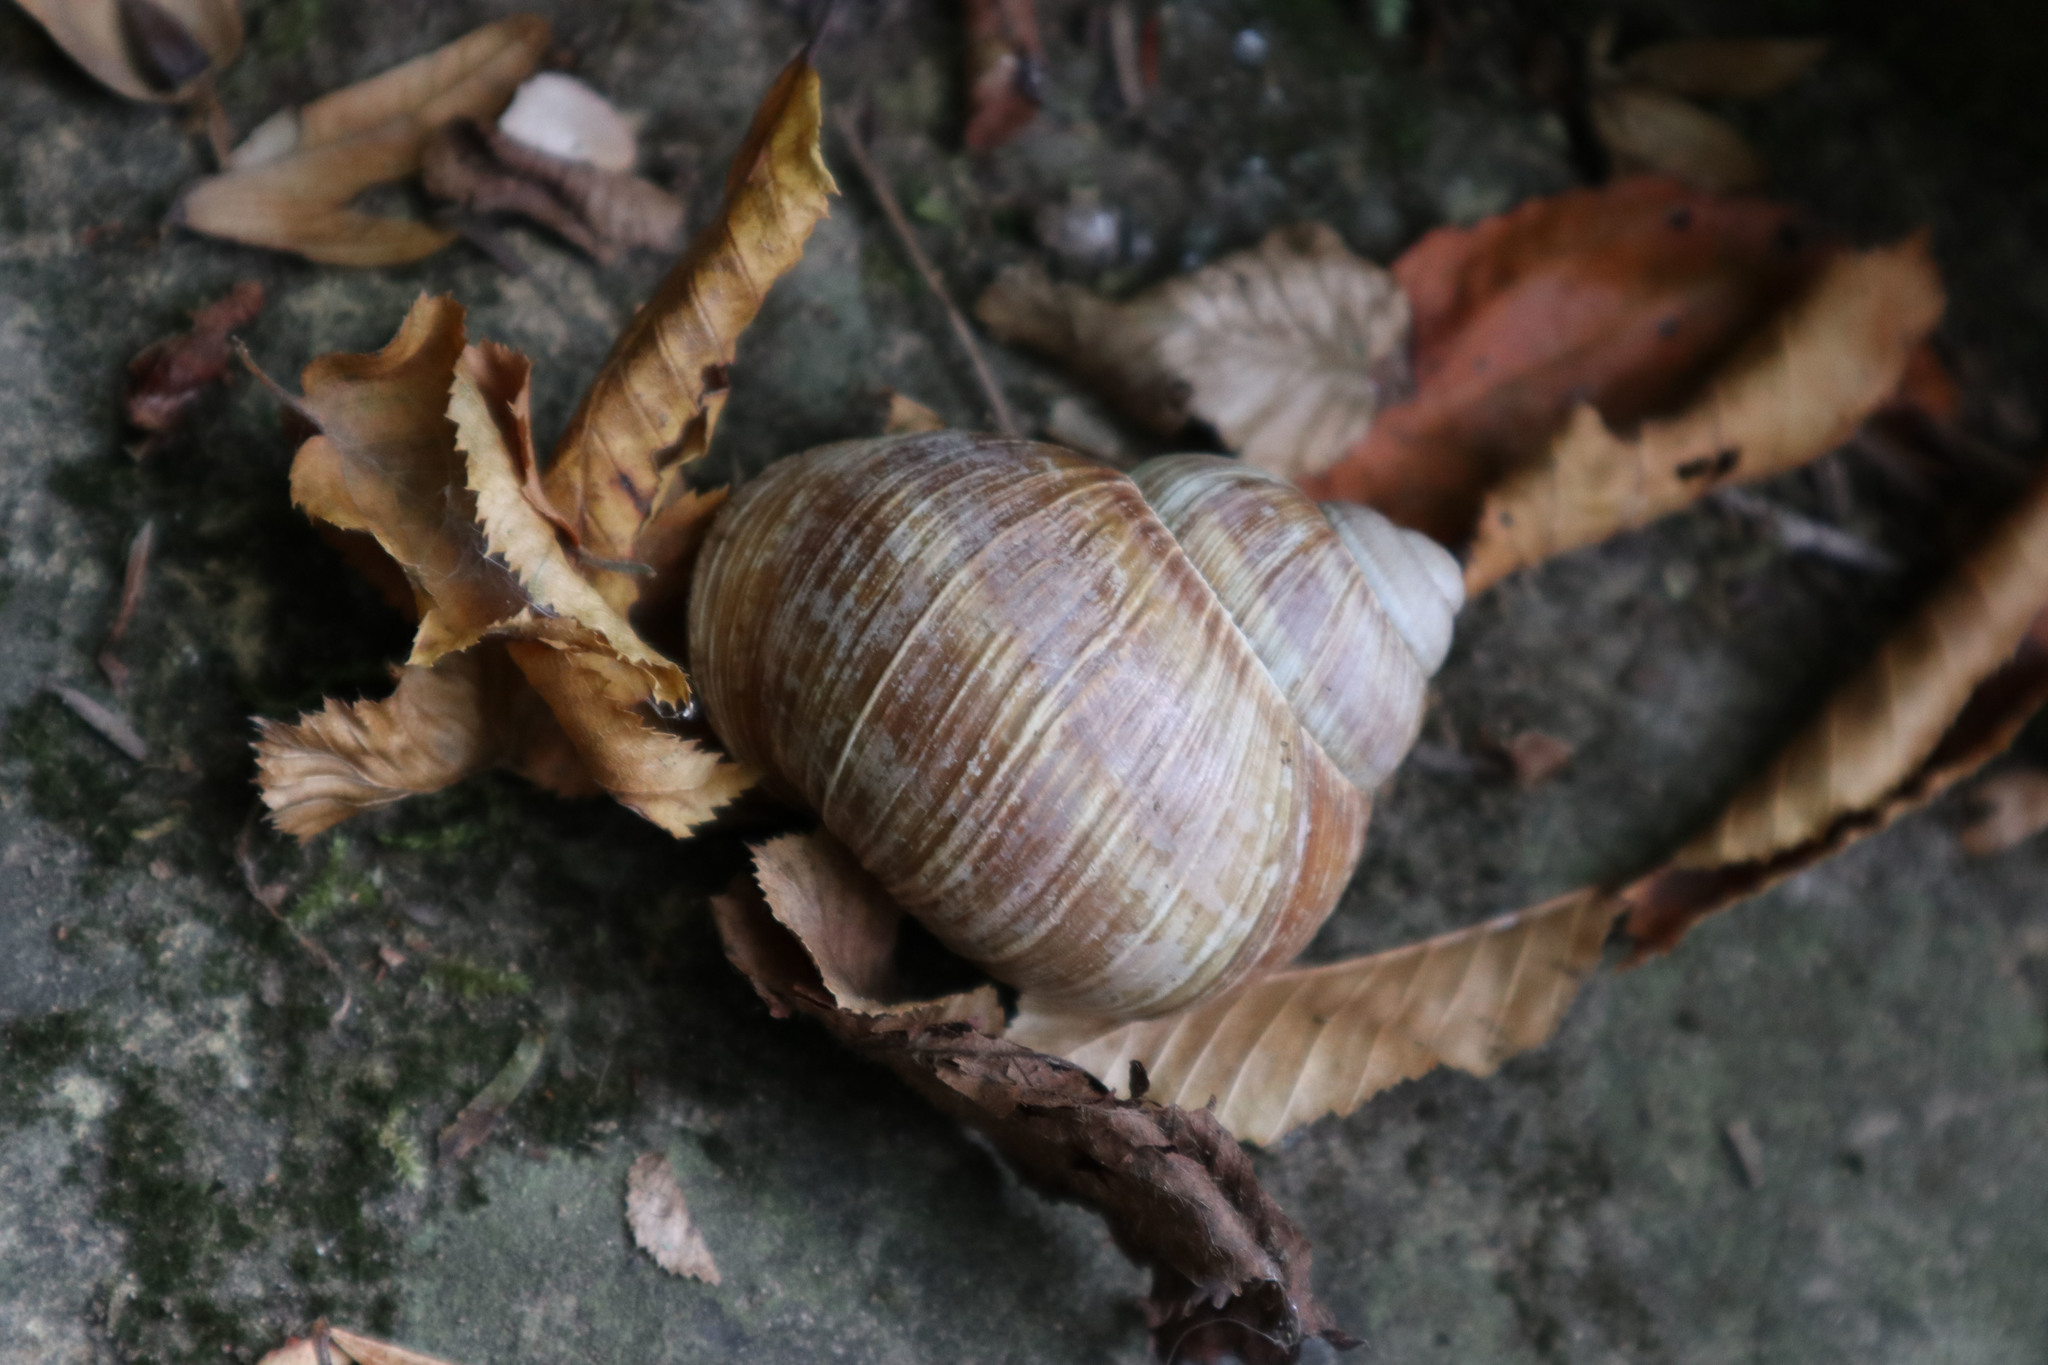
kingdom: Animalia
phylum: Mollusca
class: Gastropoda
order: Stylommatophora
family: Helicidae
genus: Helix
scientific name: Helix pomatia
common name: Roman snail
